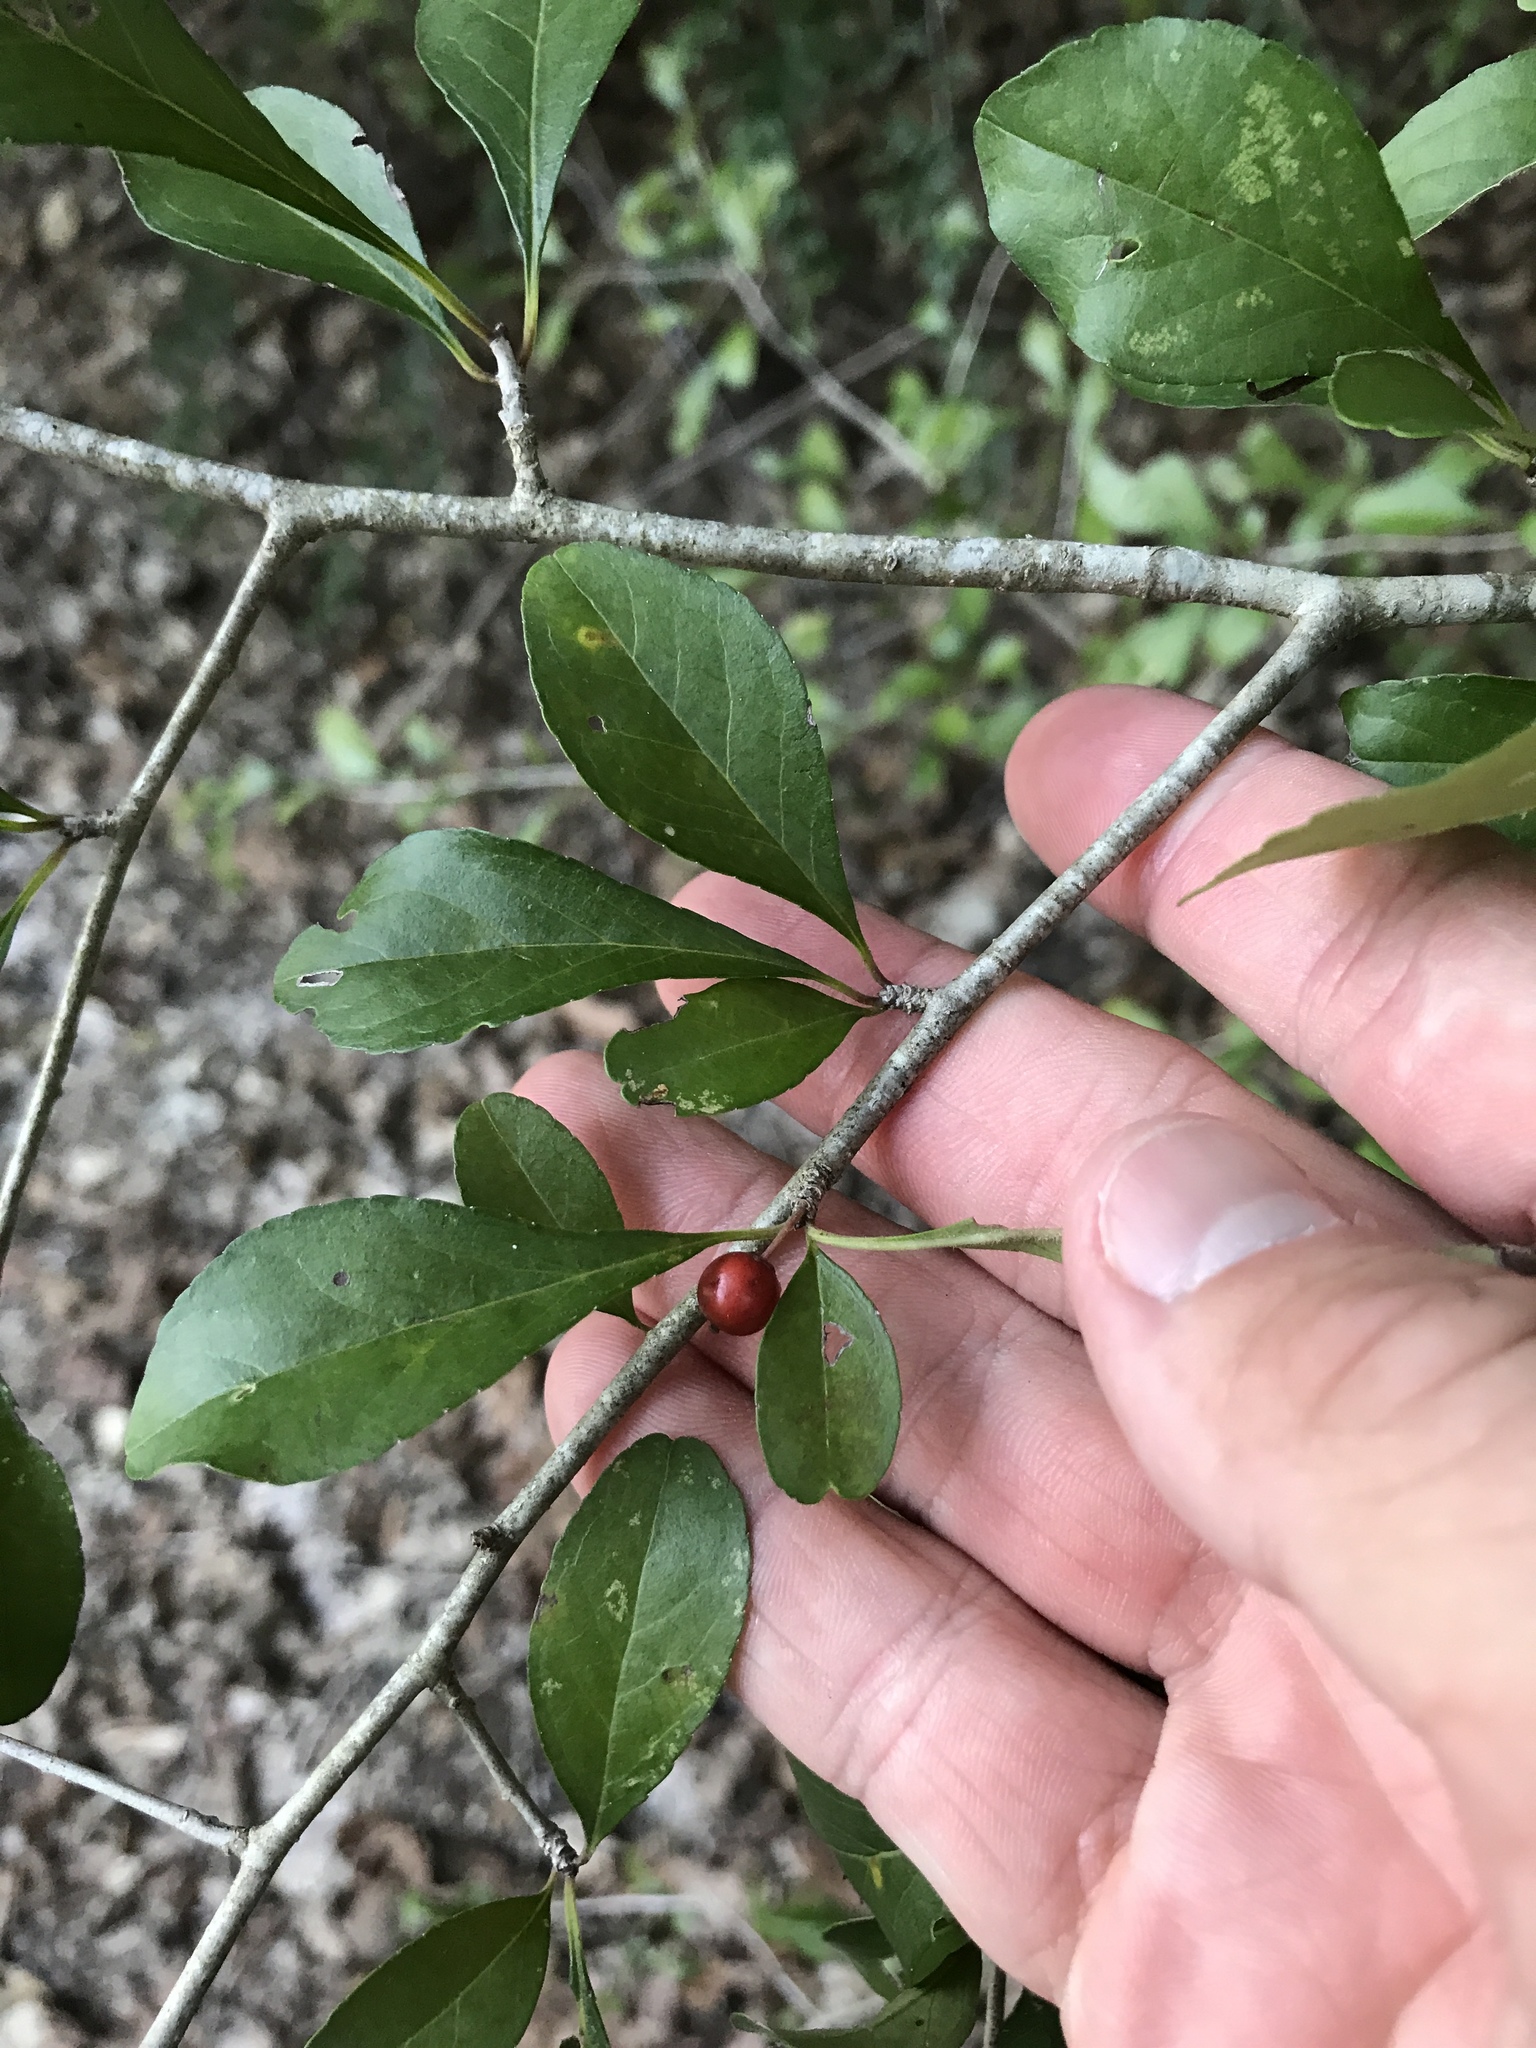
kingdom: Plantae
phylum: Tracheophyta
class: Magnoliopsida
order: Aquifoliales
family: Aquifoliaceae
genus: Ilex
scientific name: Ilex decidua
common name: Possum-haw
